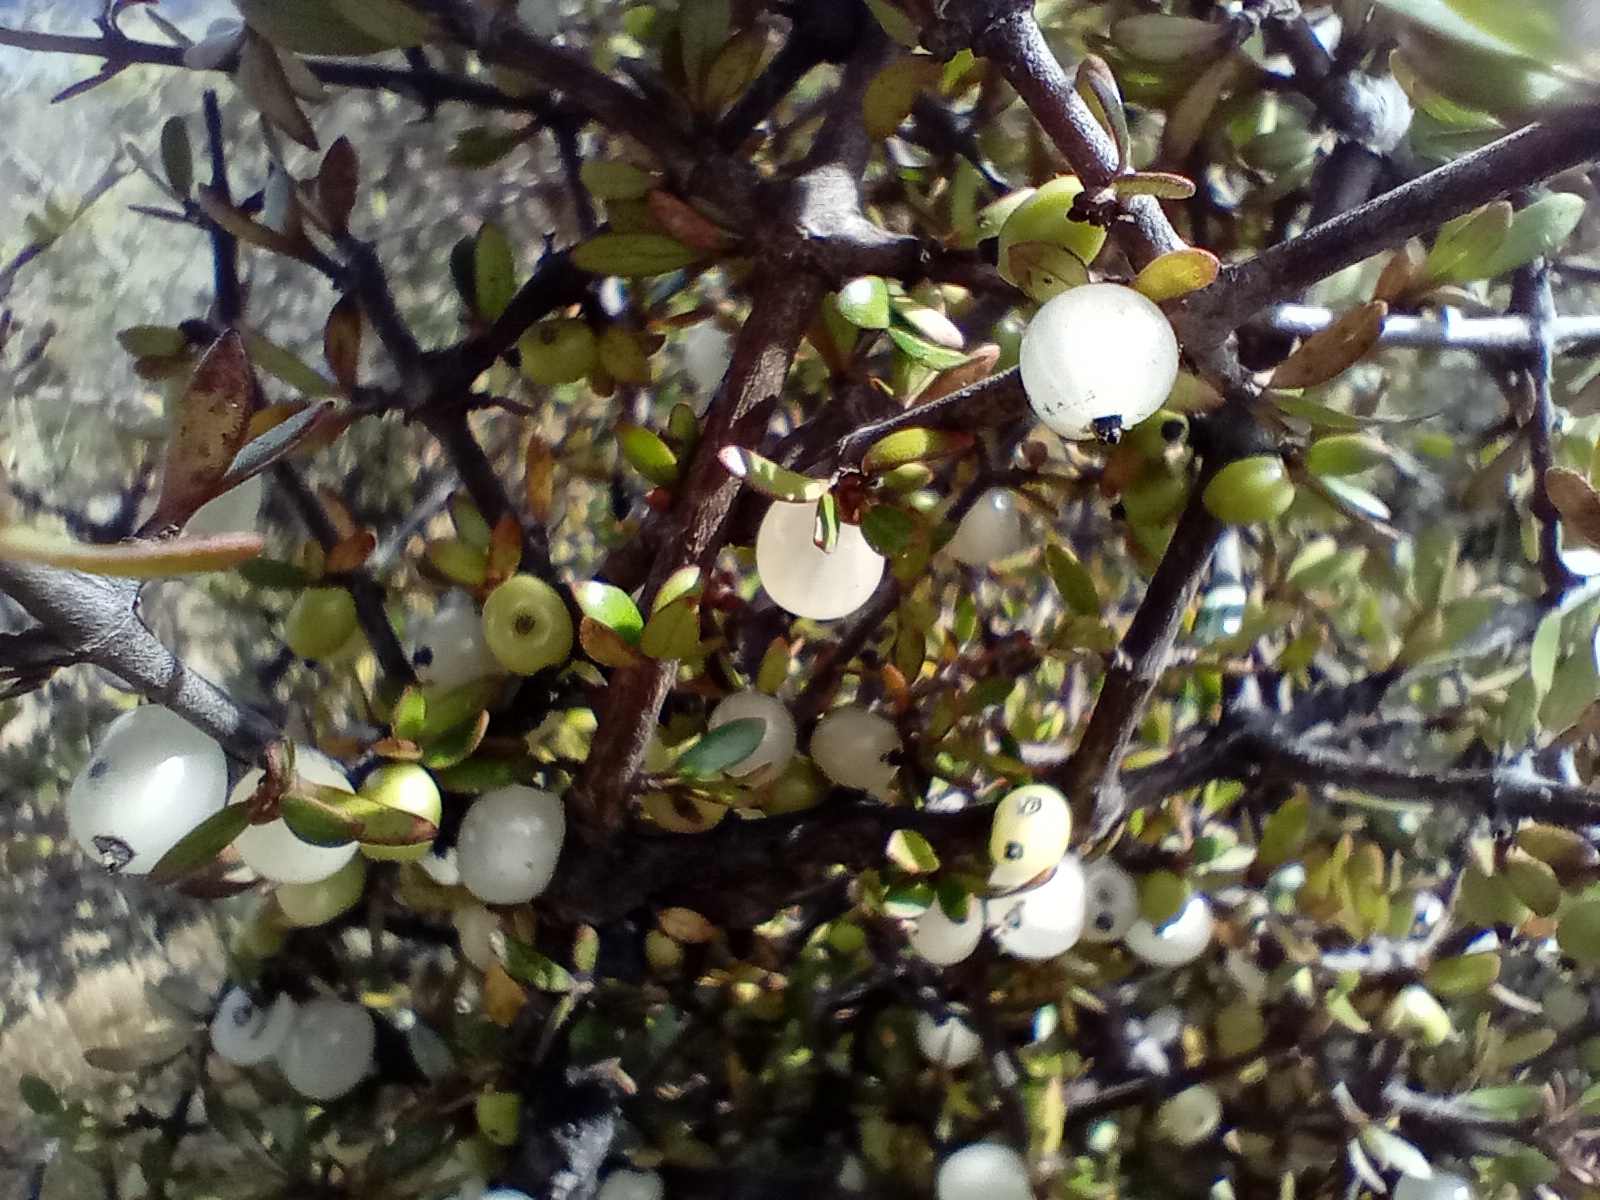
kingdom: Plantae
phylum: Tracheophyta
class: Magnoliopsida
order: Gentianales
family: Rubiaceae
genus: Coprosma
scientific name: Coprosma propinqua
